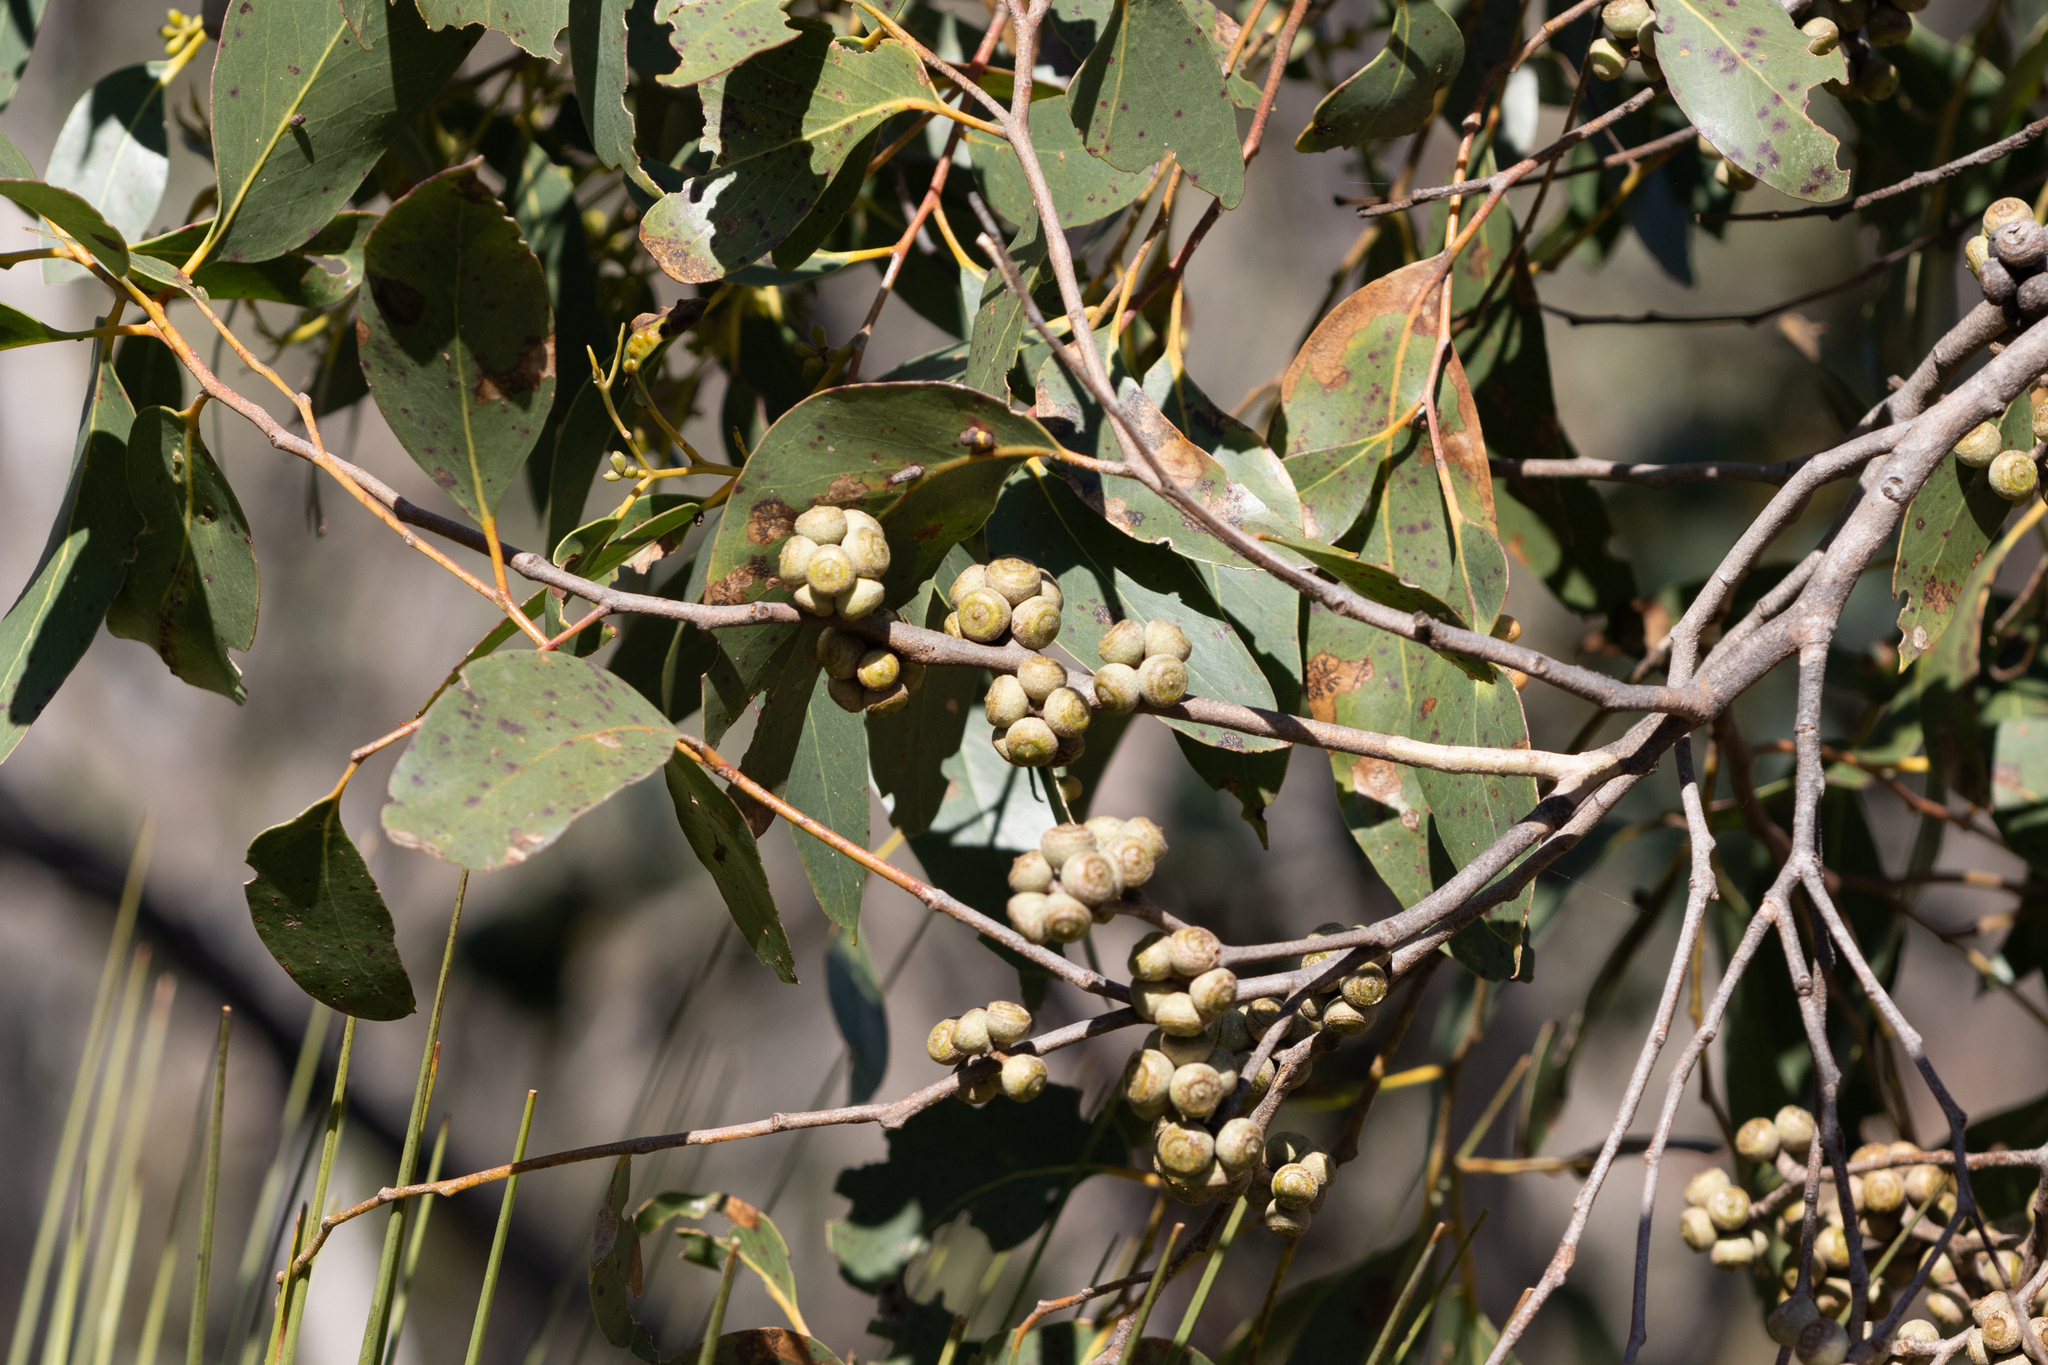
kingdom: Plantae
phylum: Tracheophyta
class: Magnoliopsida
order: Myrtales
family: Myrtaceae
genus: Eucalyptus
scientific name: Eucalyptus baxteri
